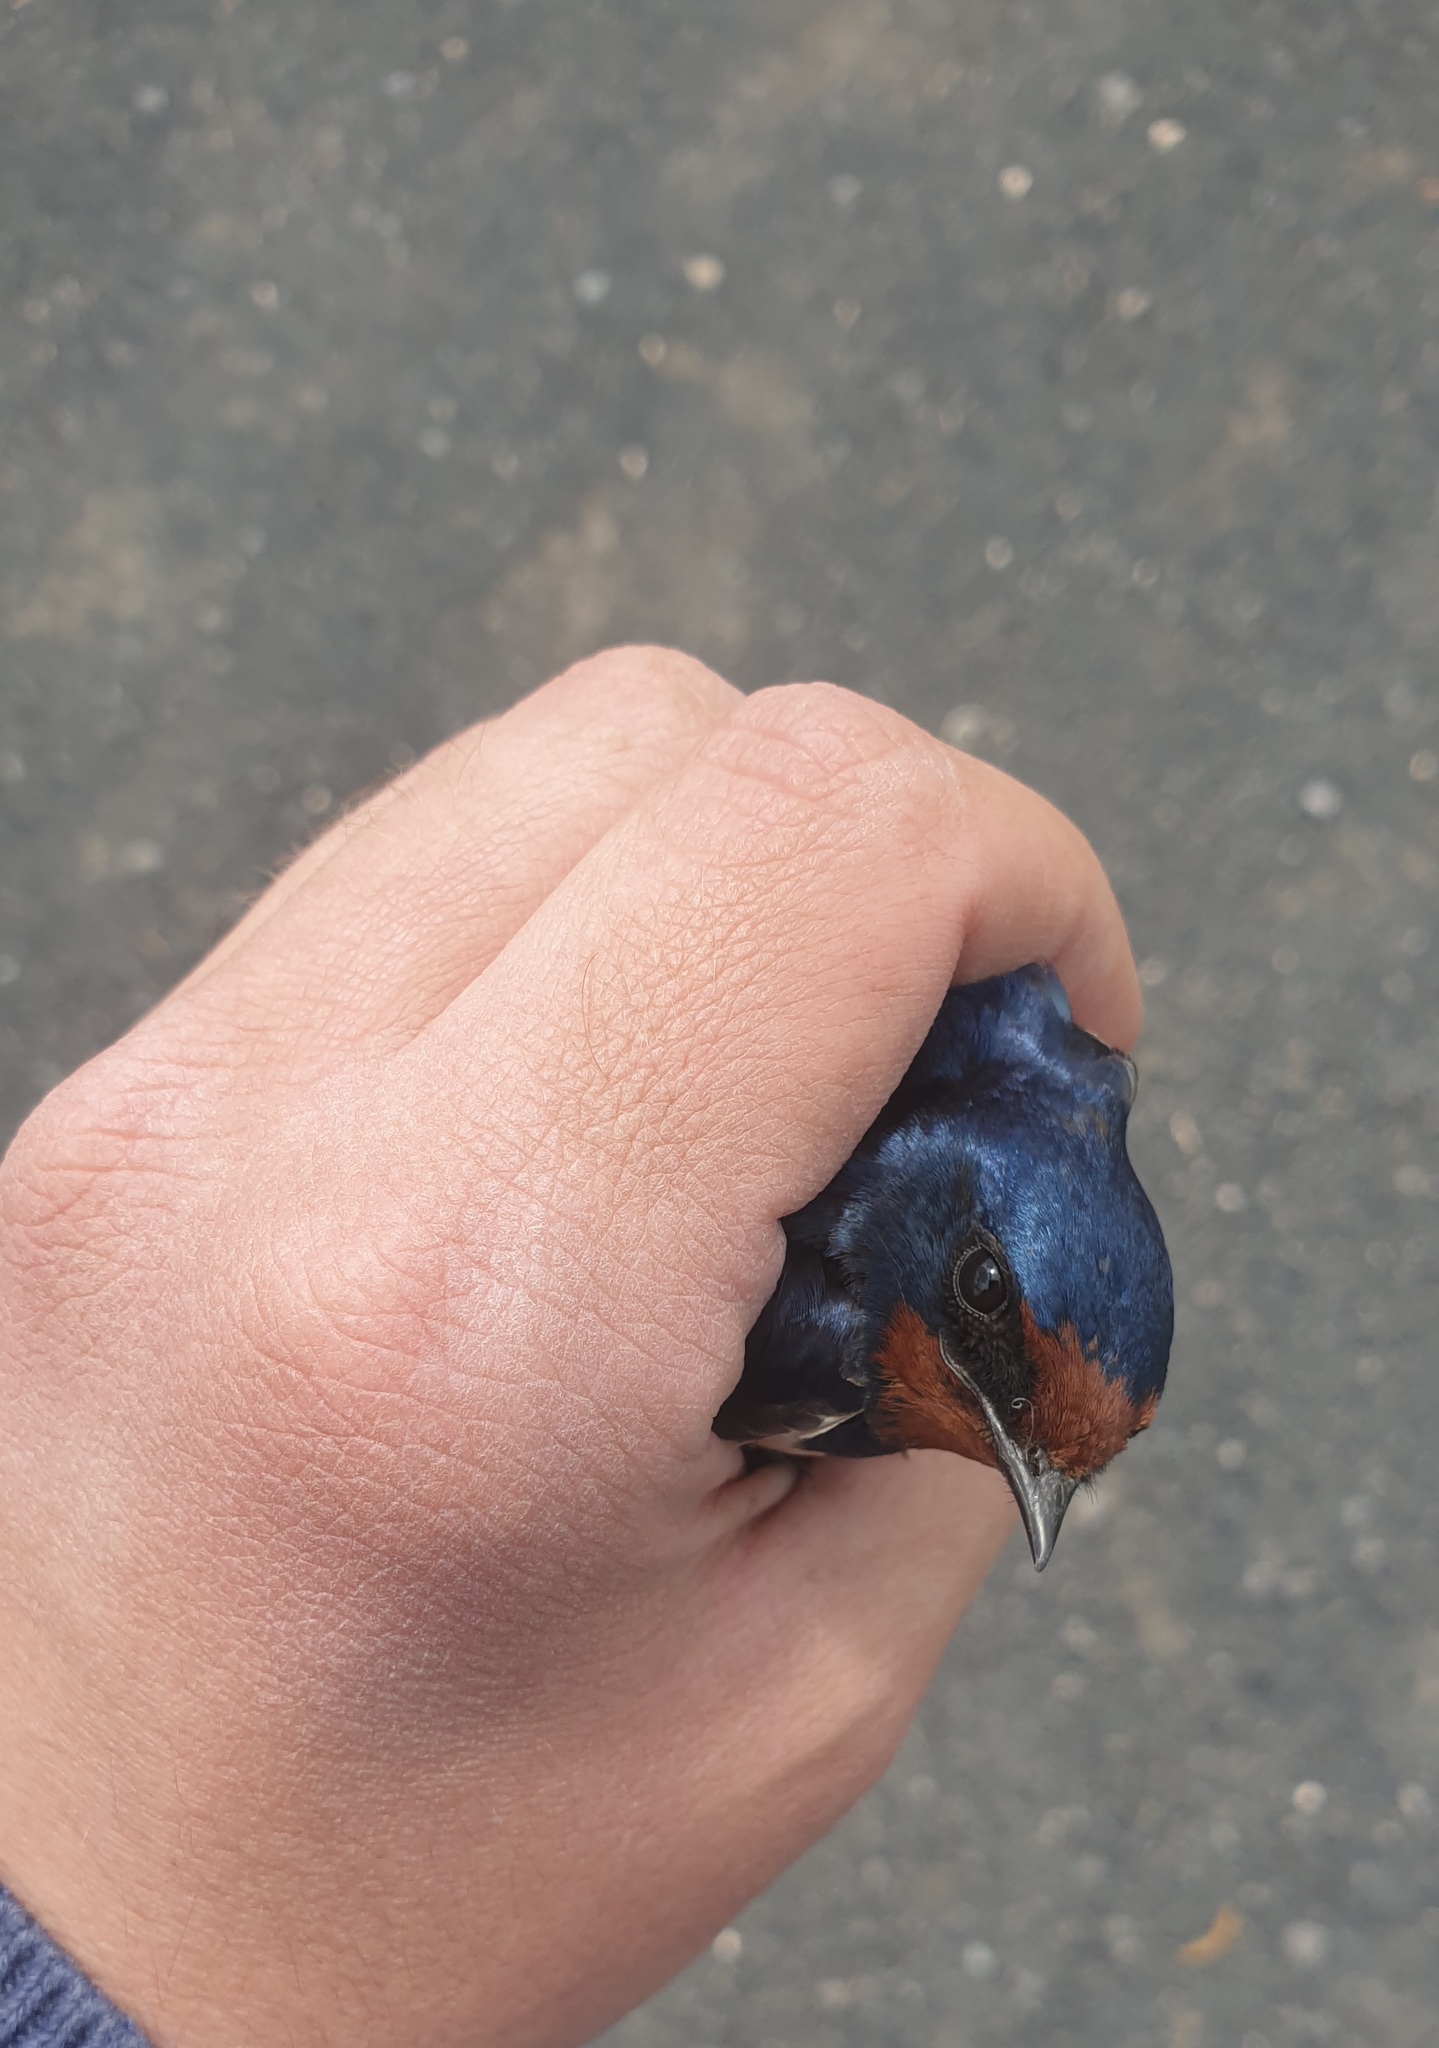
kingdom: Animalia
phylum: Chordata
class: Aves
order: Passeriformes
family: Hirundinidae
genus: Hirundo
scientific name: Hirundo rustica
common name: Barn swallow
